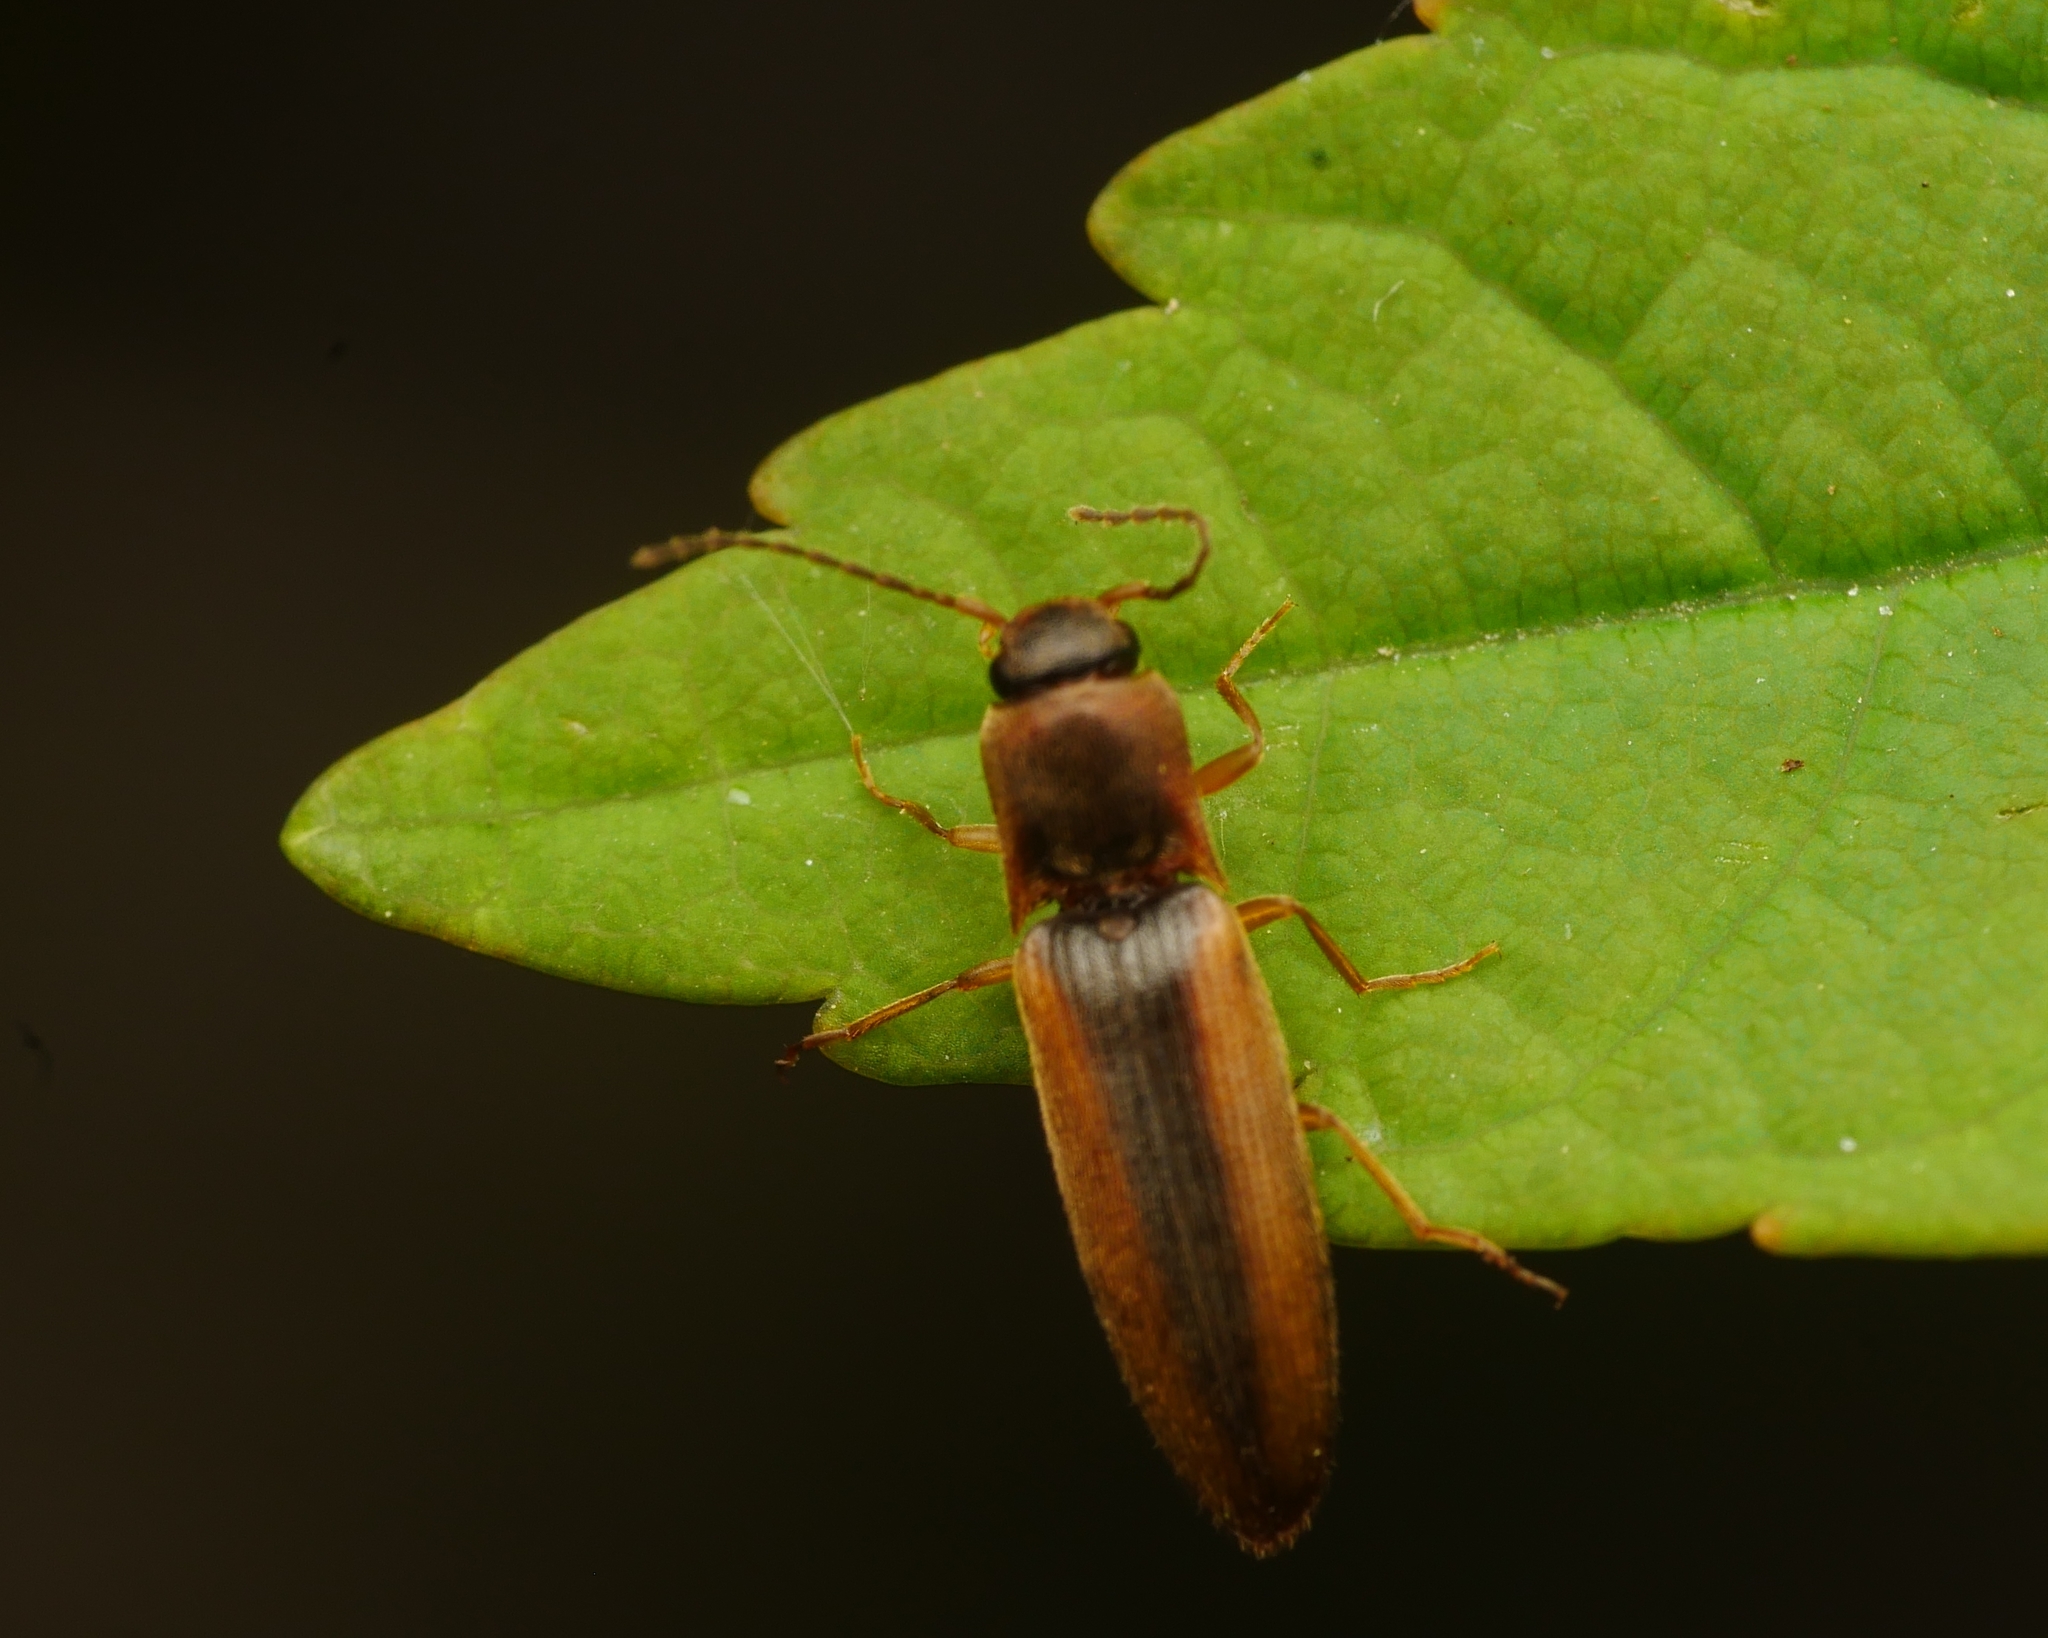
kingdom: Animalia
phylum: Arthropoda
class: Insecta
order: Coleoptera
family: Elateridae
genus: Dalopius
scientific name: Dalopius marginatus
